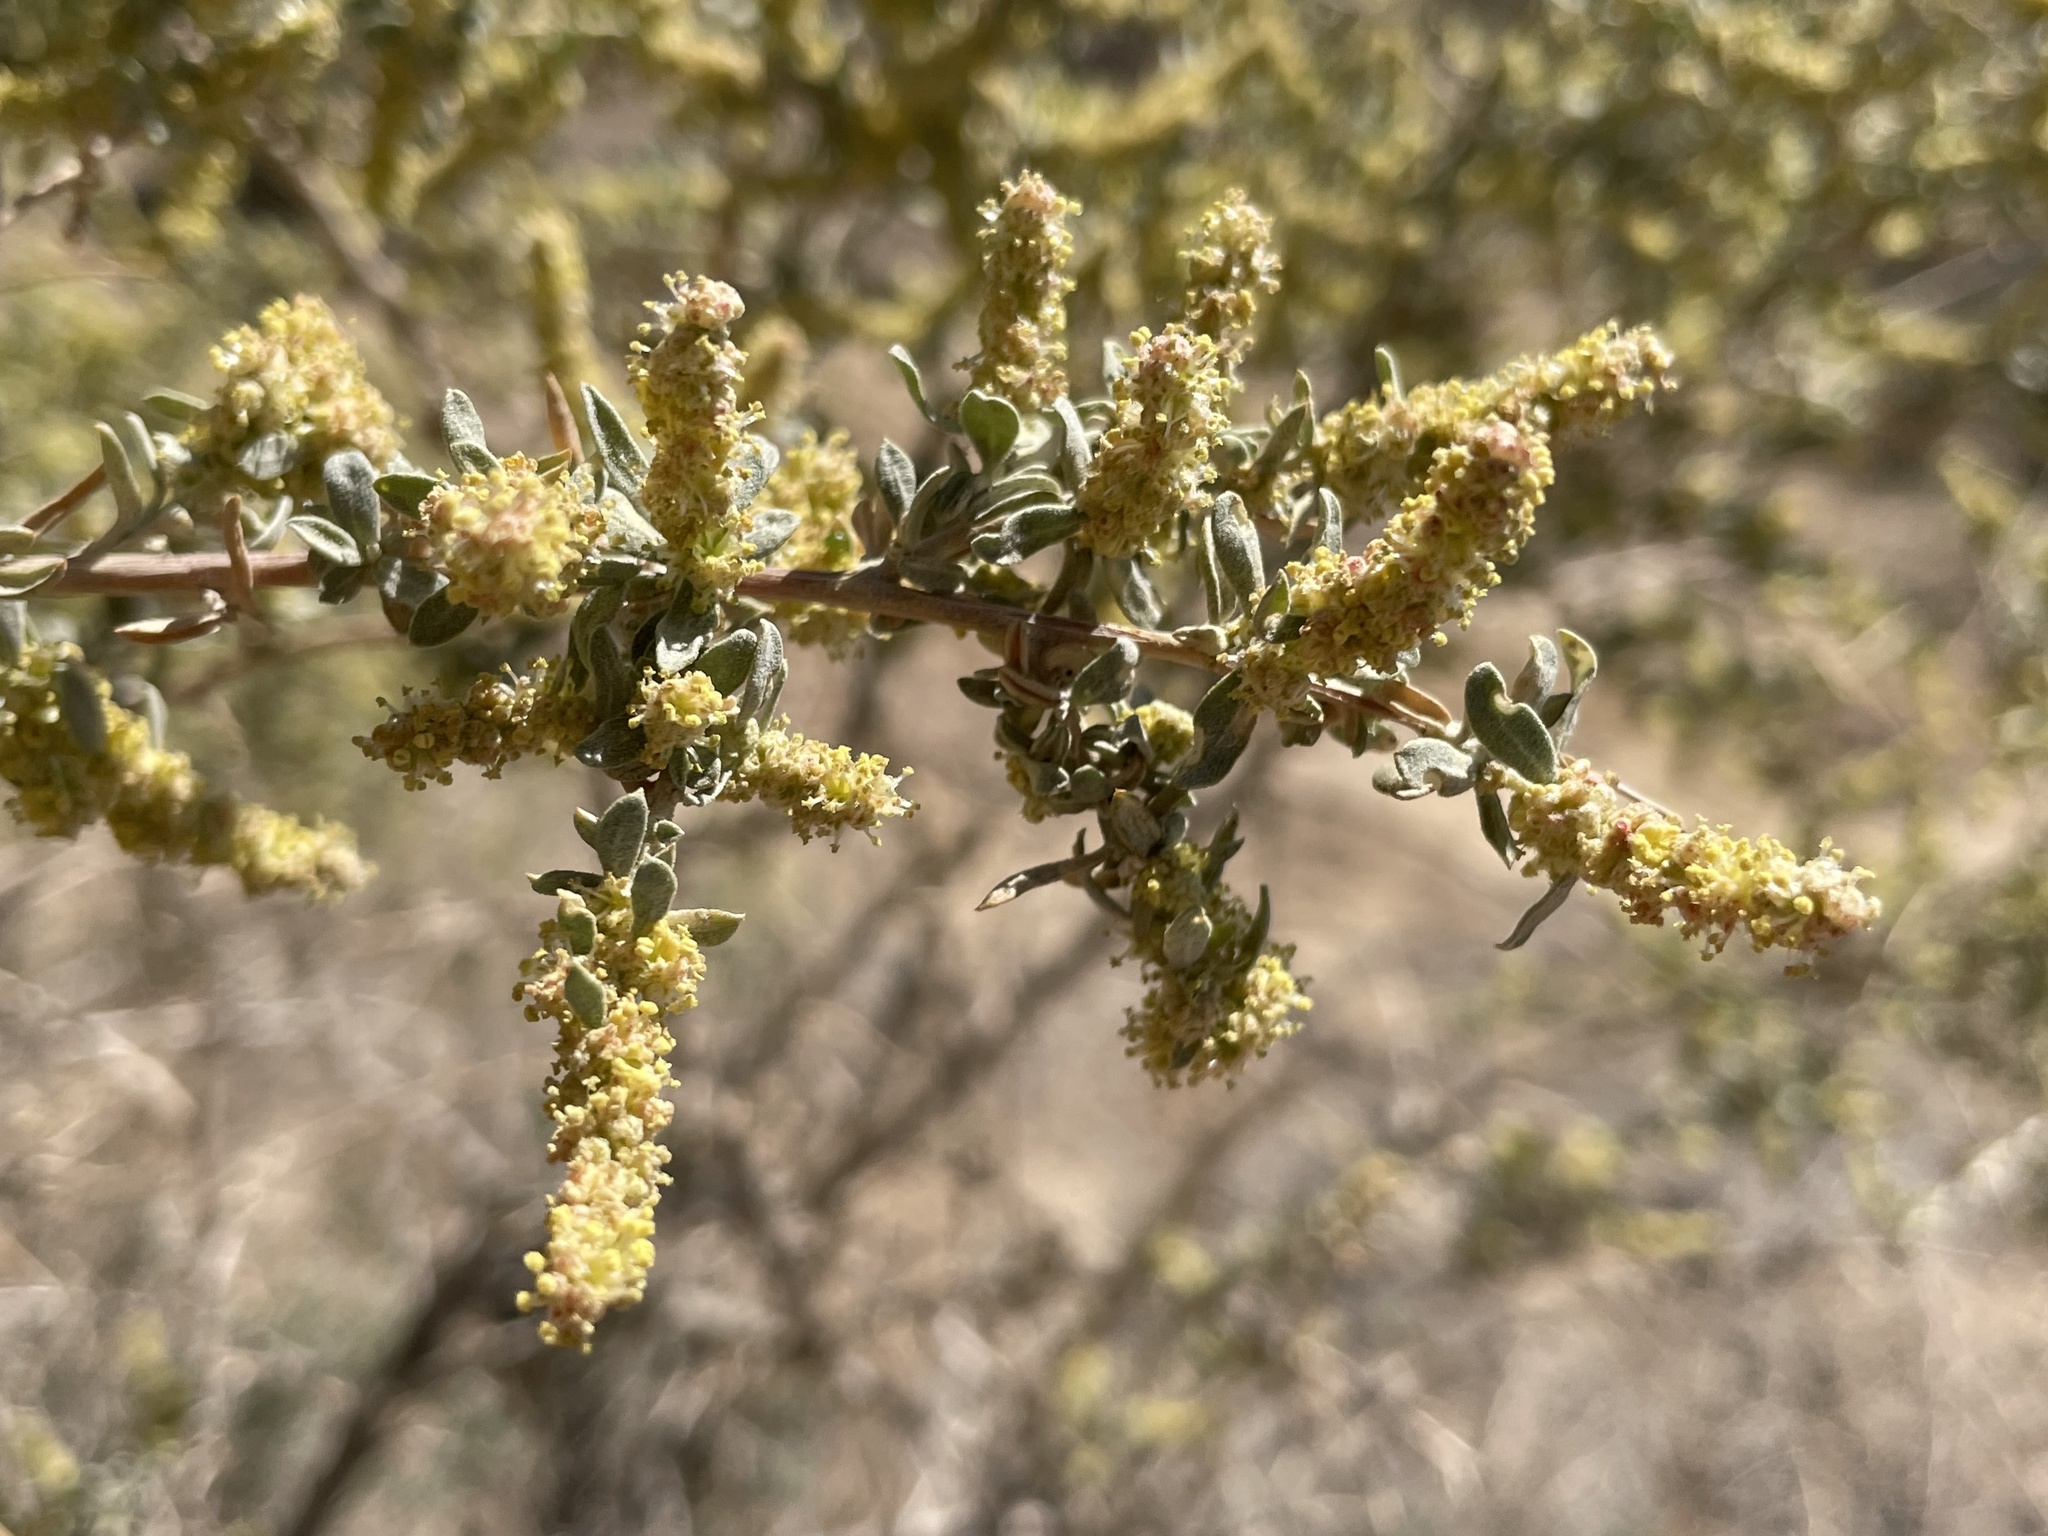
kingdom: Plantae
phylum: Tracheophyta
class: Magnoliopsida
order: Caryophyllales
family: Amaranthaceae
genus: Atriplex
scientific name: Atriplex canescens
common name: Four-wing saltbush
